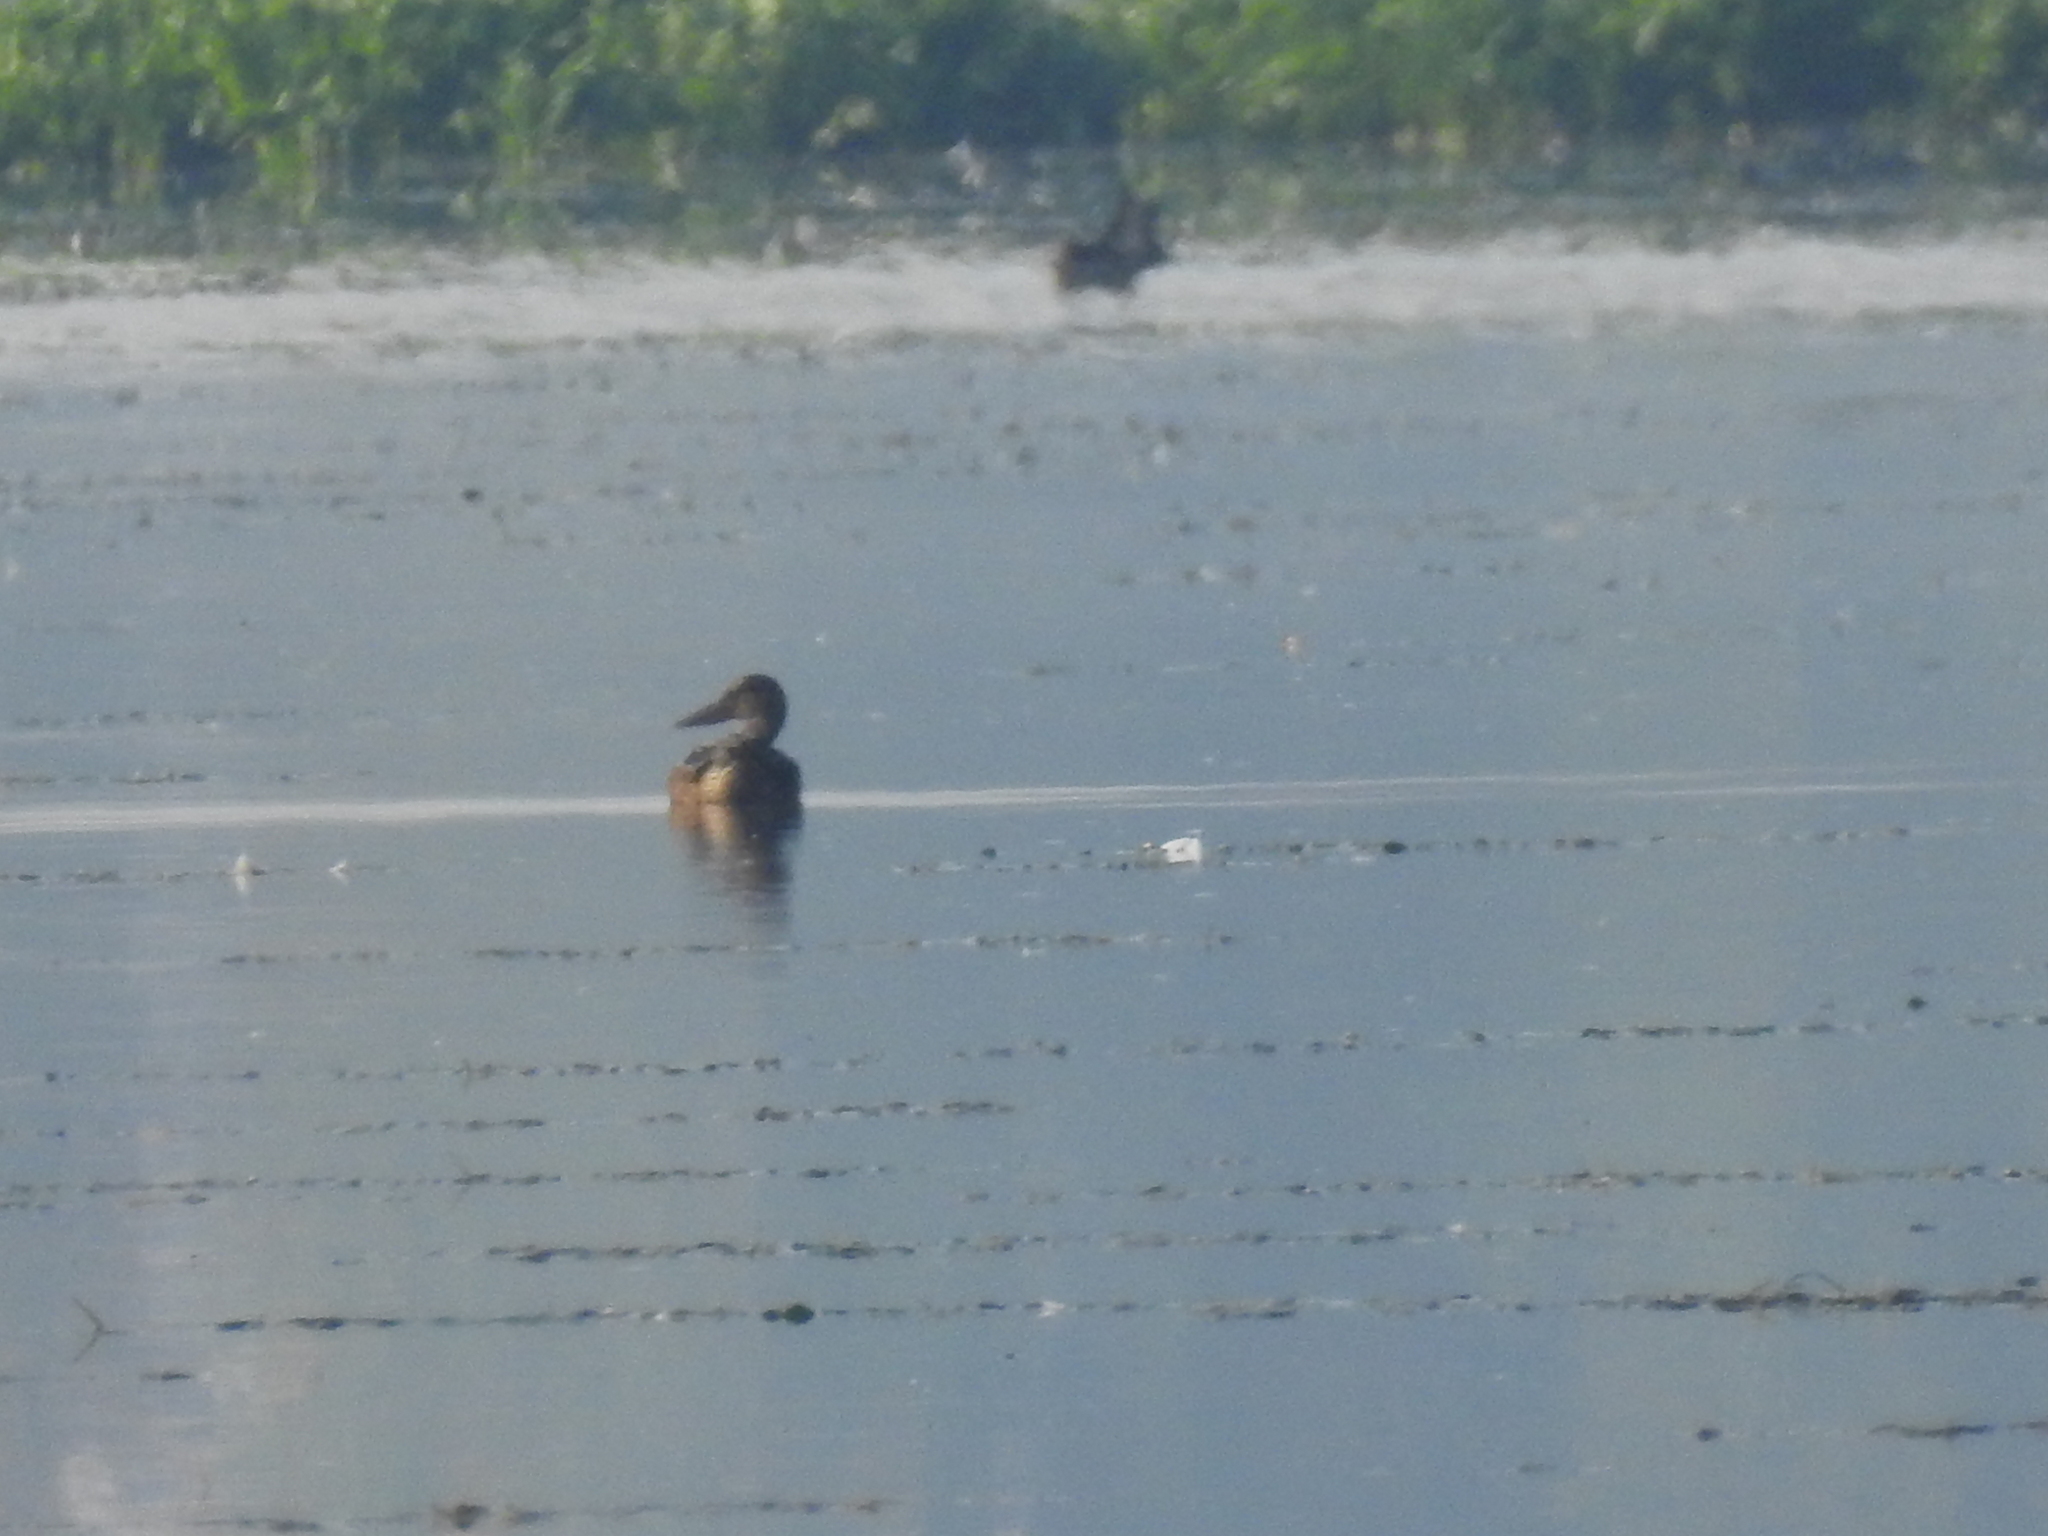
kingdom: Animalia
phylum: Chordata
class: Aves
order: Anseriformes
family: Anatidae
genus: Spatula
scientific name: Spatula clypeata
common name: Northern shoveler
